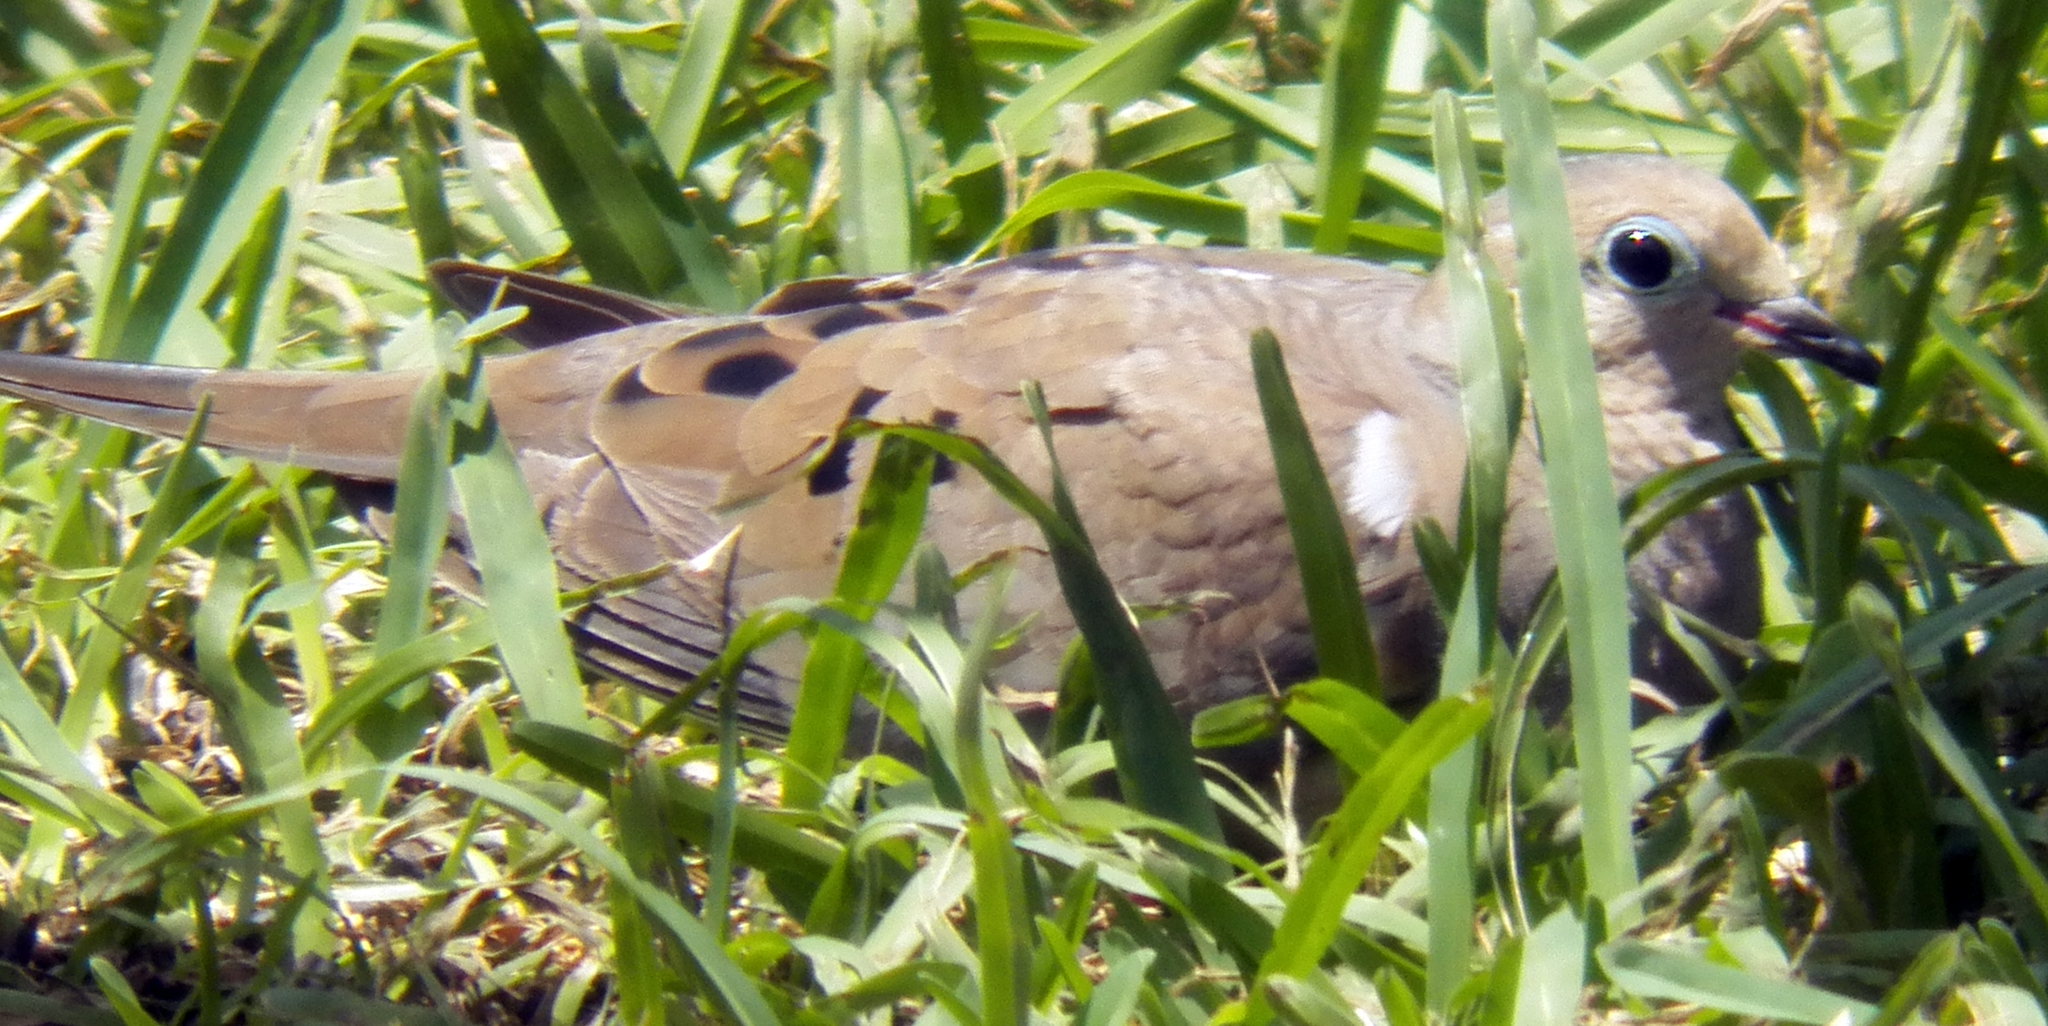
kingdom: Animalia
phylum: Chordata
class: Aves
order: Columbiformes
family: Columbidae
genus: Zenaida
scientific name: Zenaida macroura
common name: Mourning dove
